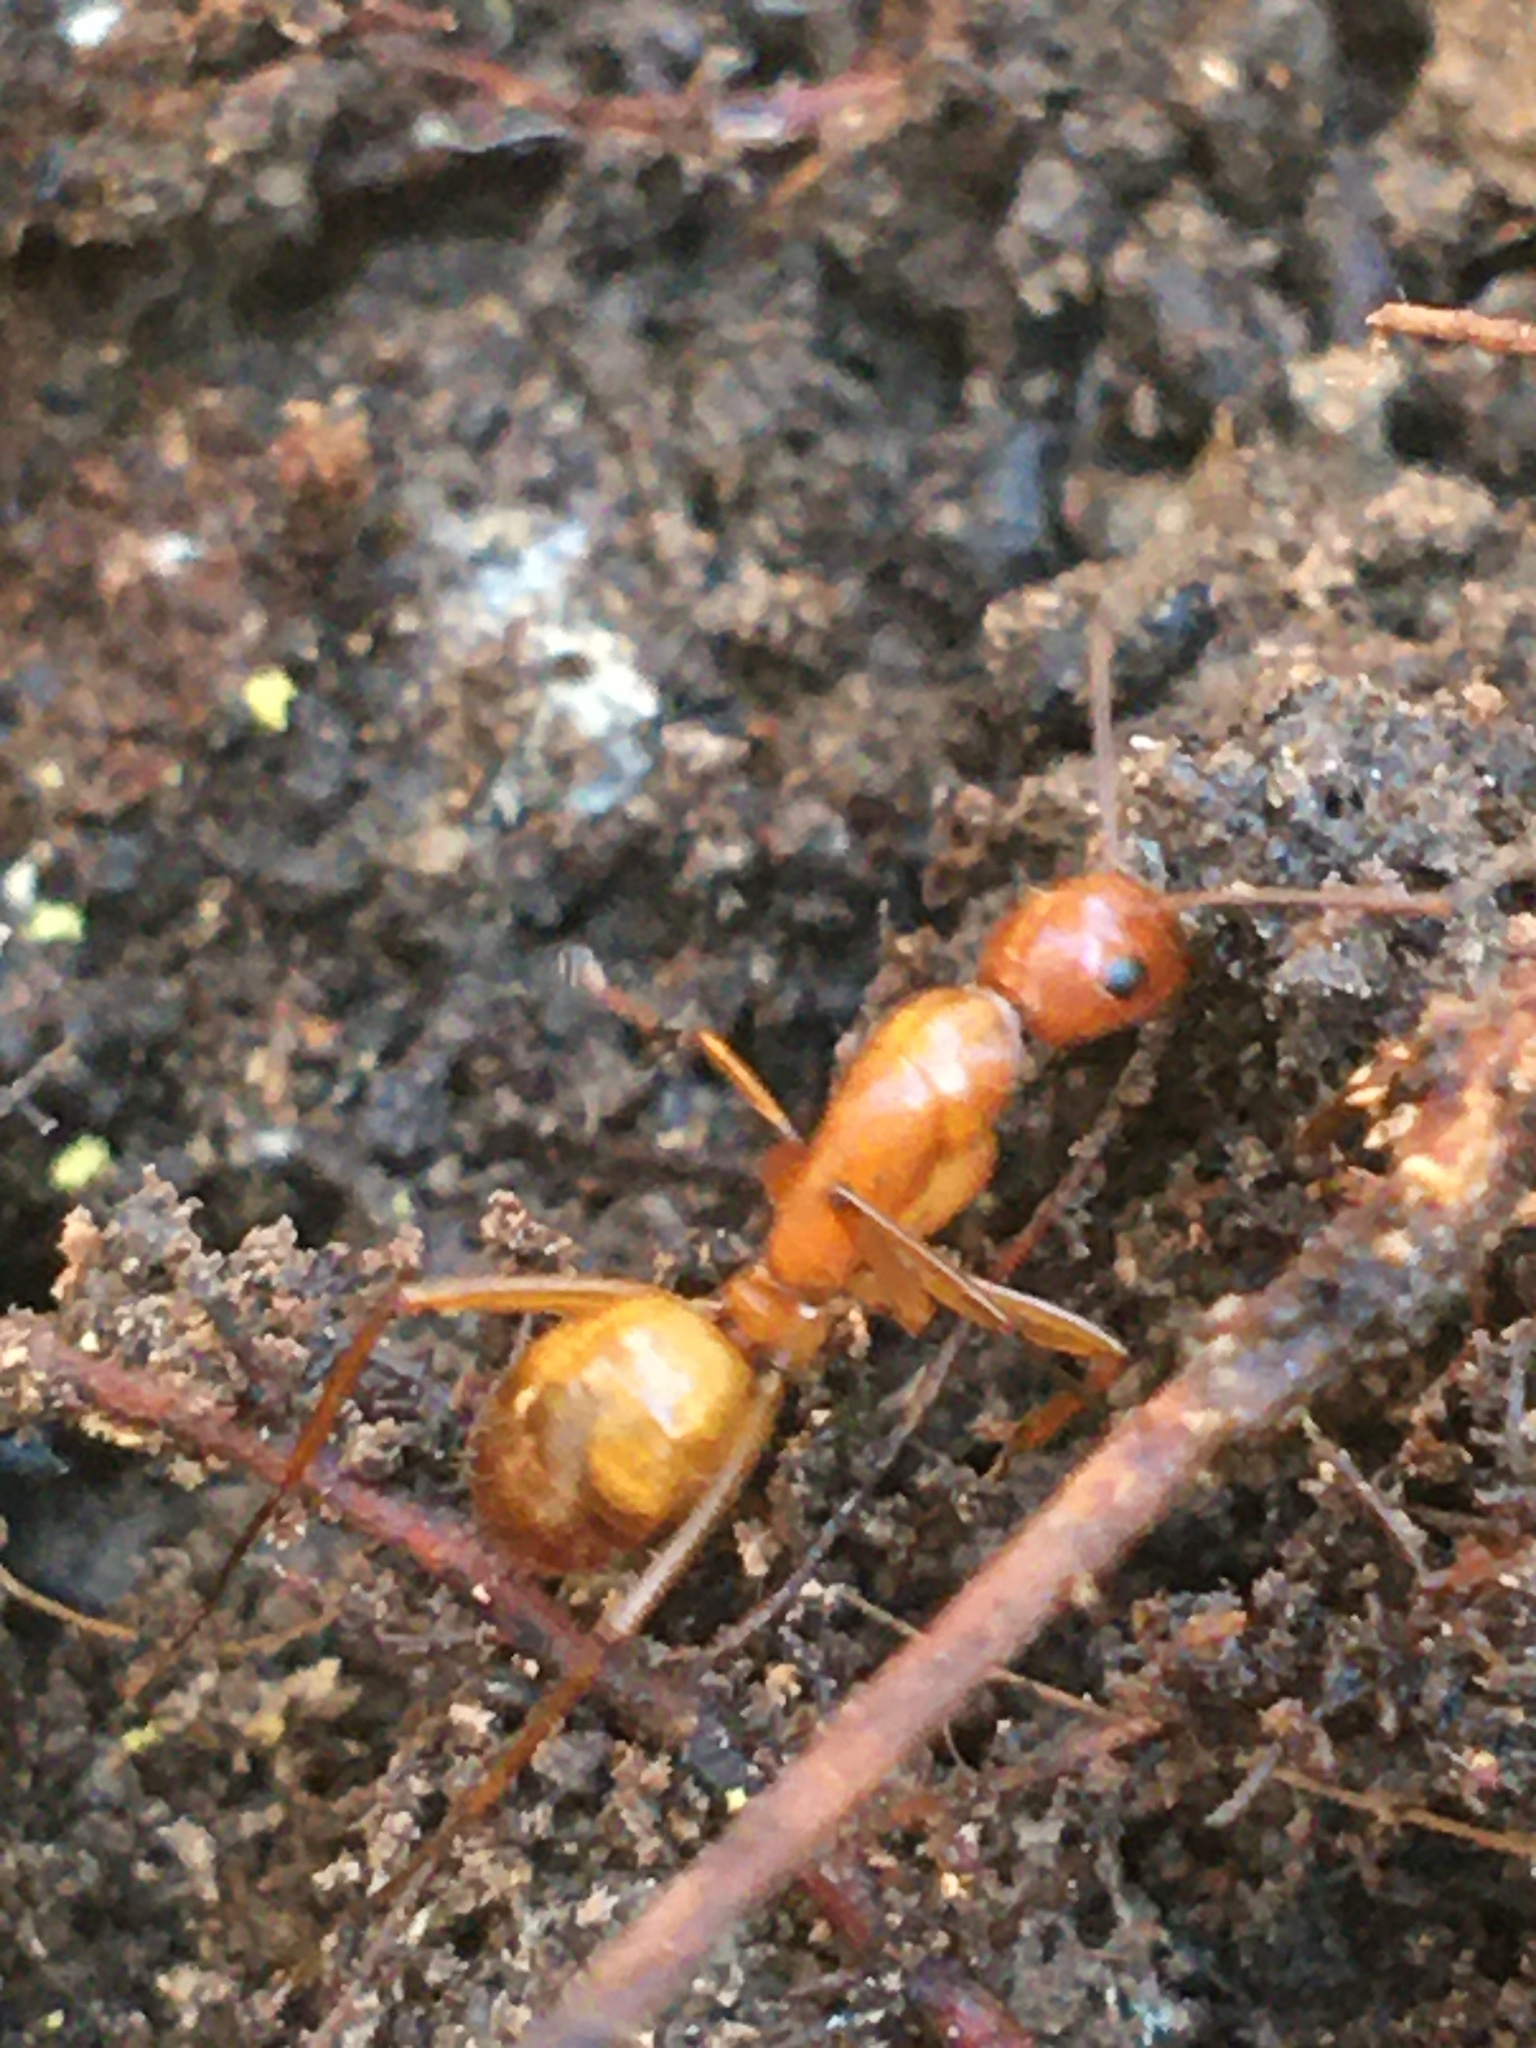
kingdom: Animalia
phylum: Arthropoda
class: Insecta
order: Hymenoptera
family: Formicidae
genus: Camponotus
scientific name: Camponotus castaneus
